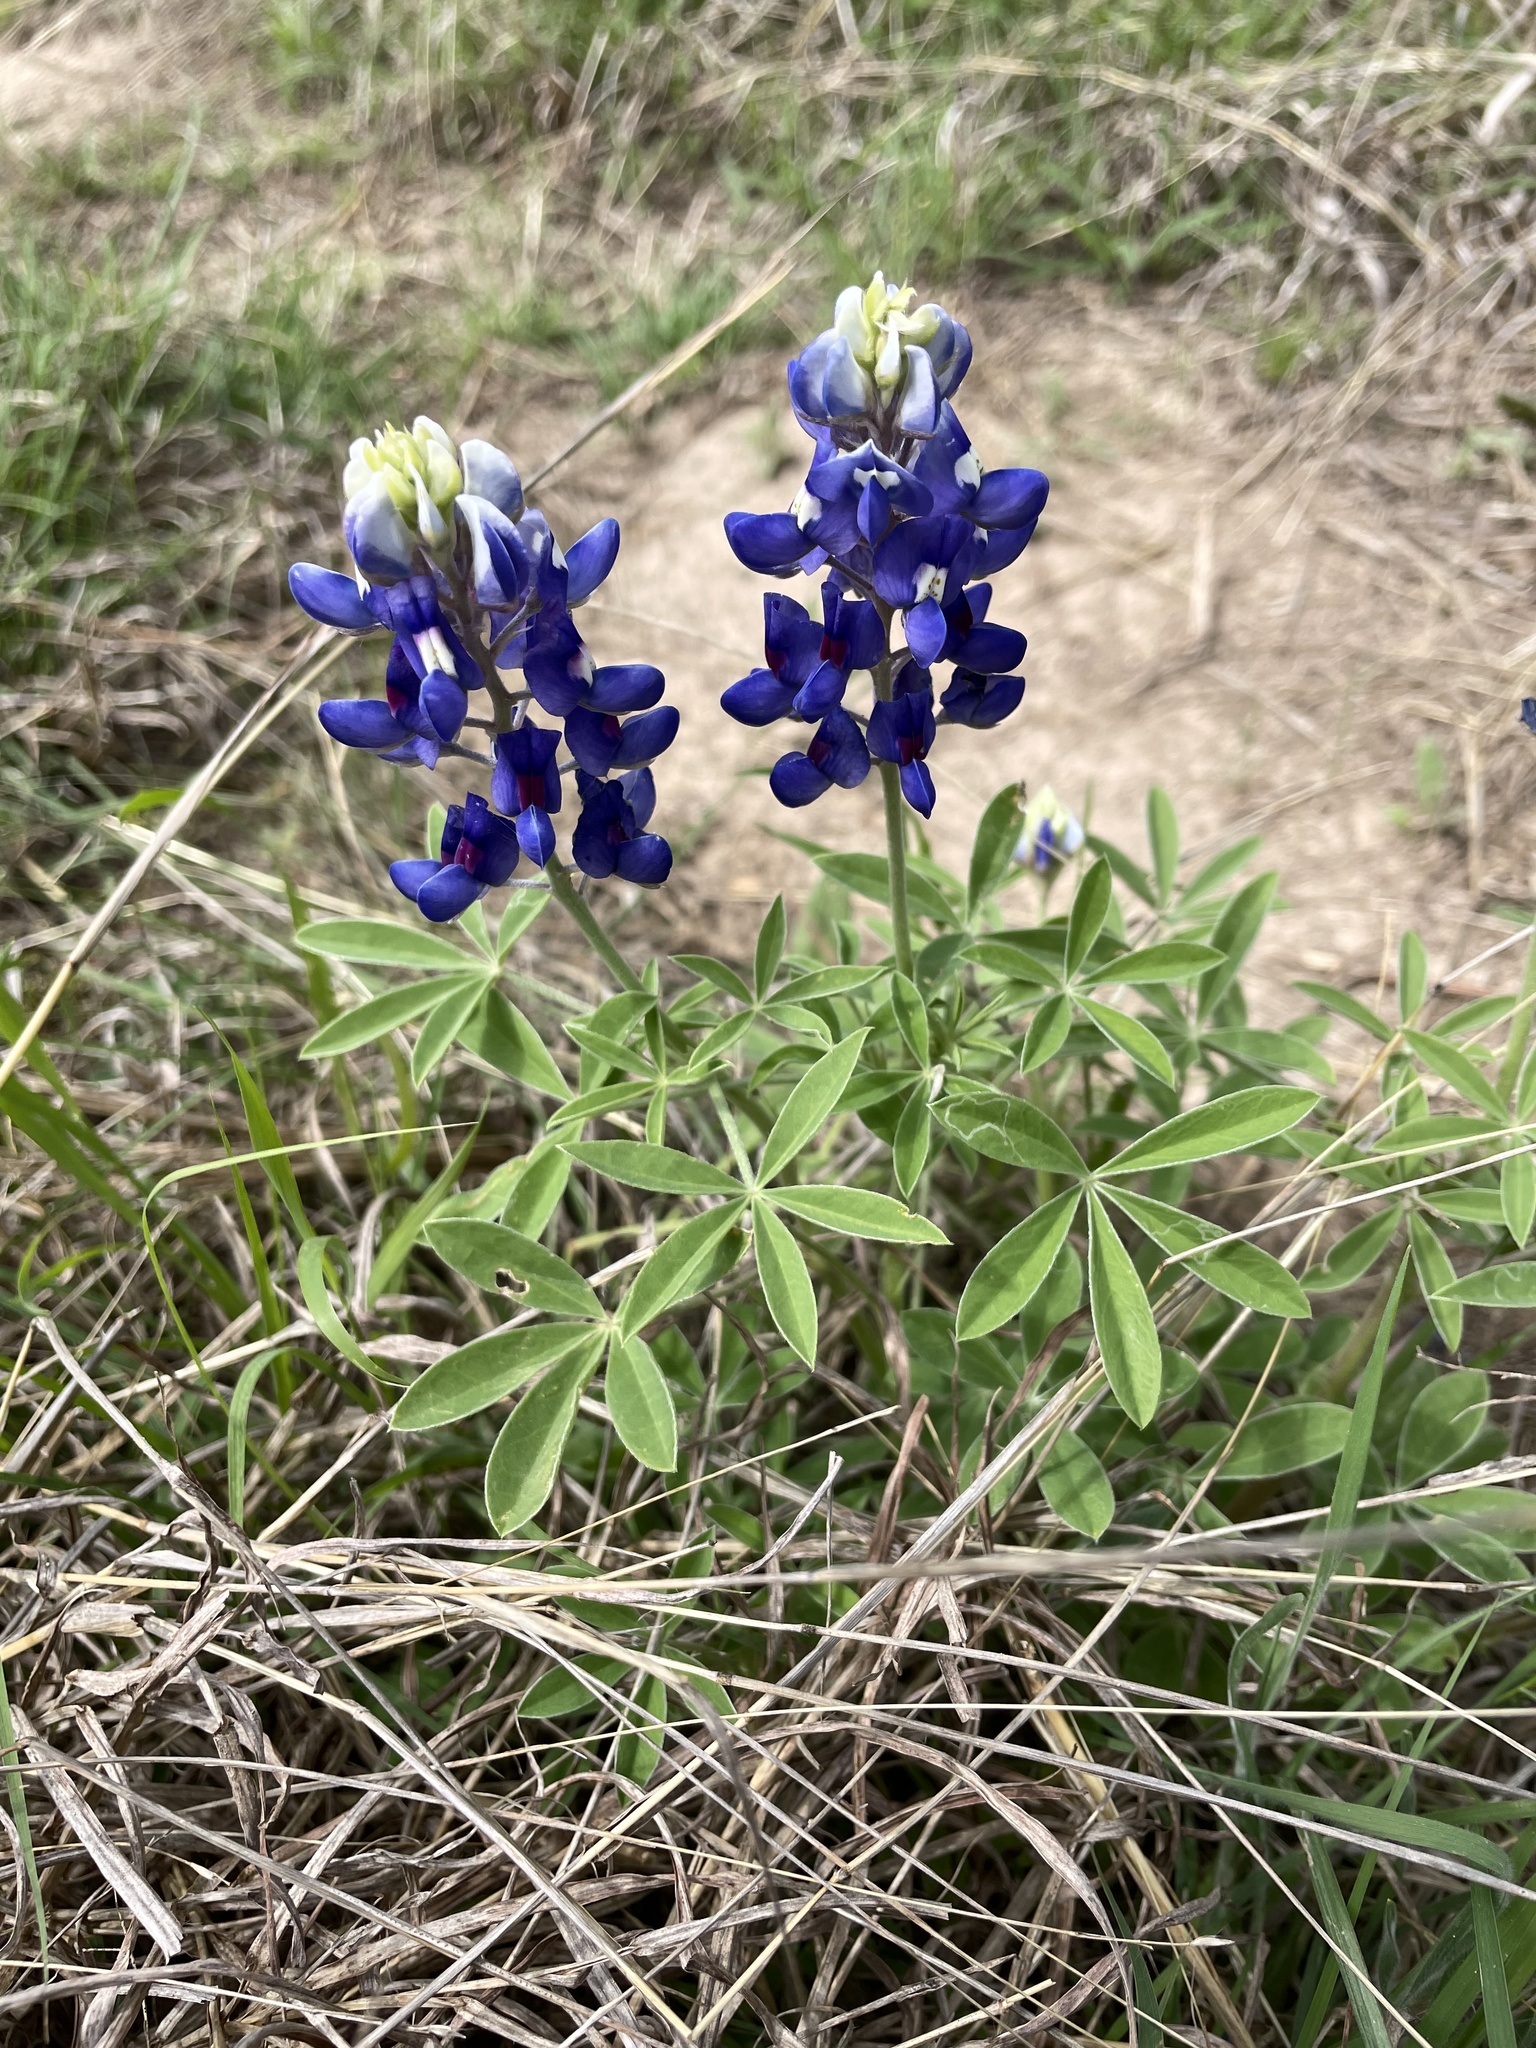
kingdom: Plantae
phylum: Tracheophyta
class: Magnoliopsida
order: Fabales
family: Fabaceae
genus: Lupinus
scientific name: Lupinus texensis
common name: Texas bluebonnet
